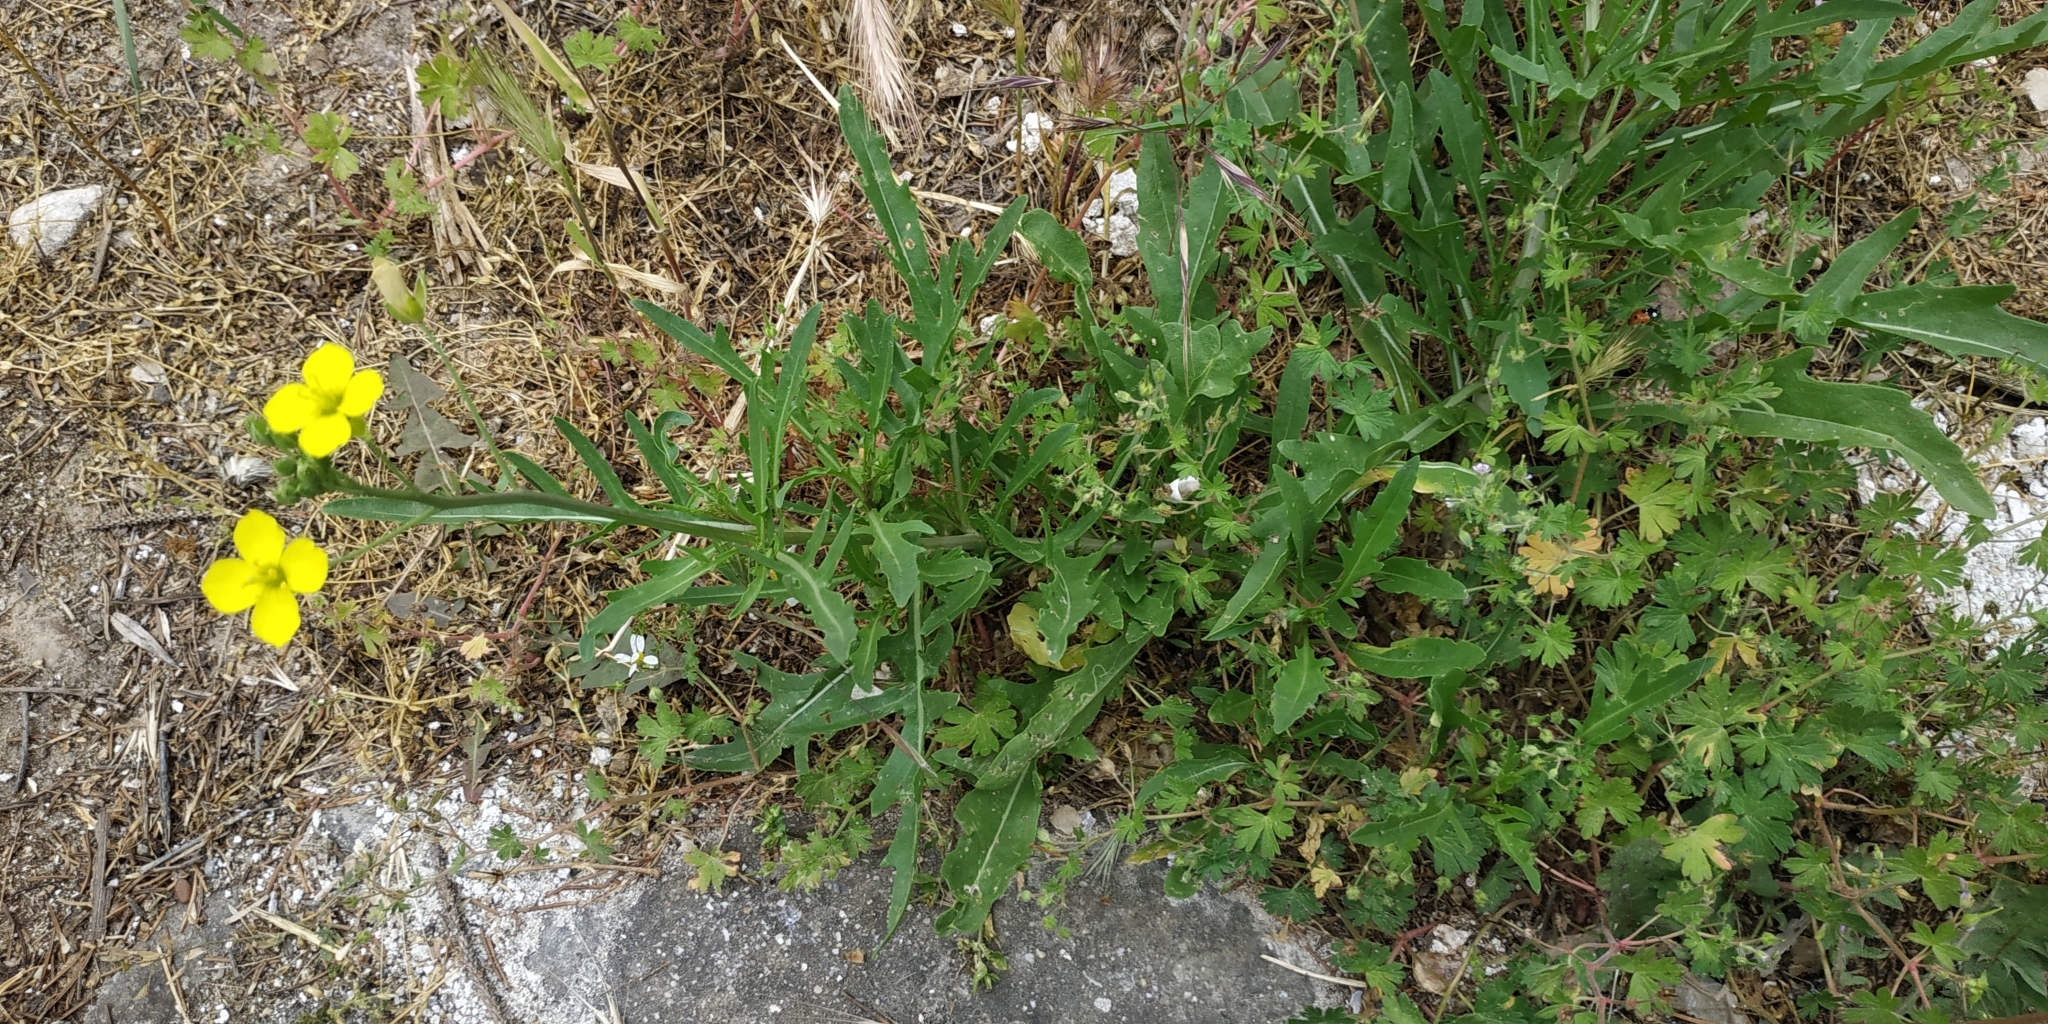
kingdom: Plantae
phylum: Tracheophyta
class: Magnoliopsida
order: Brassicales
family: Brassicaceae
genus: Diplotaxis
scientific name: Diplotaxis tenuifolia
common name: Perennial wall-rocket
